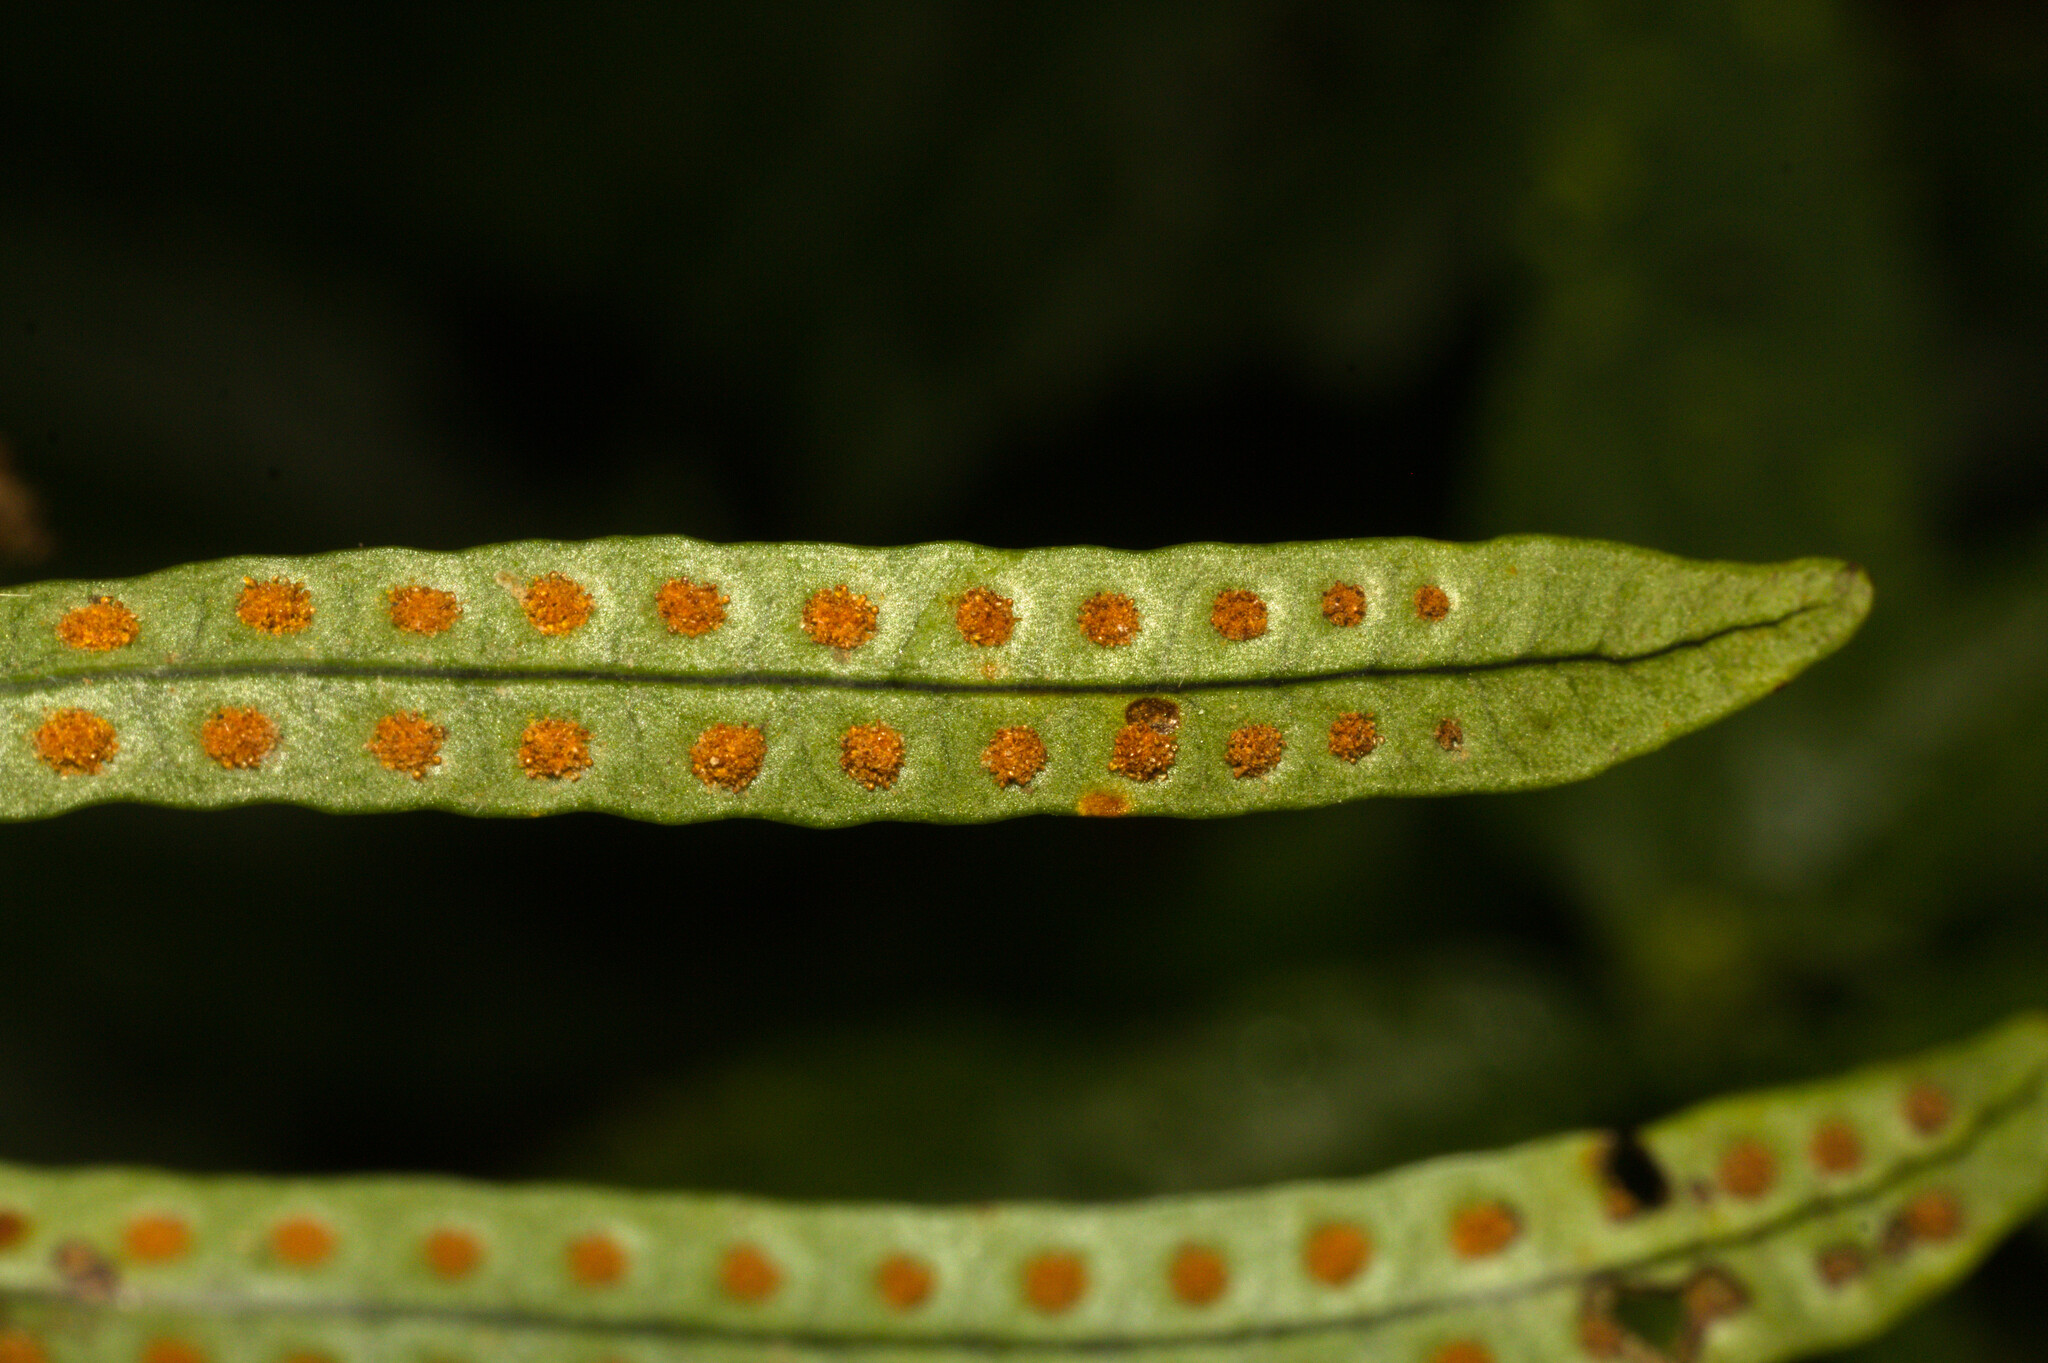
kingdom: Plantae
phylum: Tracheophyta
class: Polypodiopsida
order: Polypodiales
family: Polypodiaceae
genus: Microgramma
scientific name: Microgramma mortoniana
